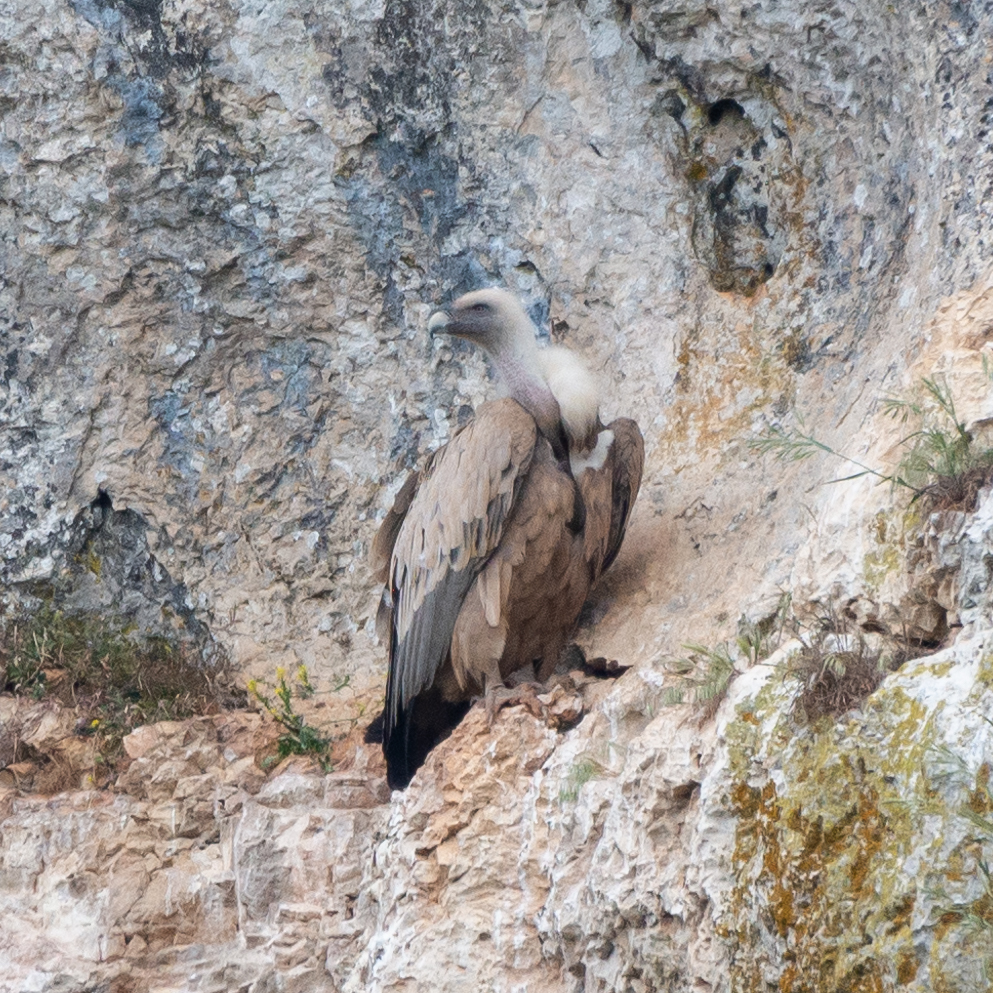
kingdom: Animalia
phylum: Chordata
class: Aves
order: Accipitriformes
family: Accipitridae
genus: Gyps
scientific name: Gyps fulvus
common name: Griffon vulture
